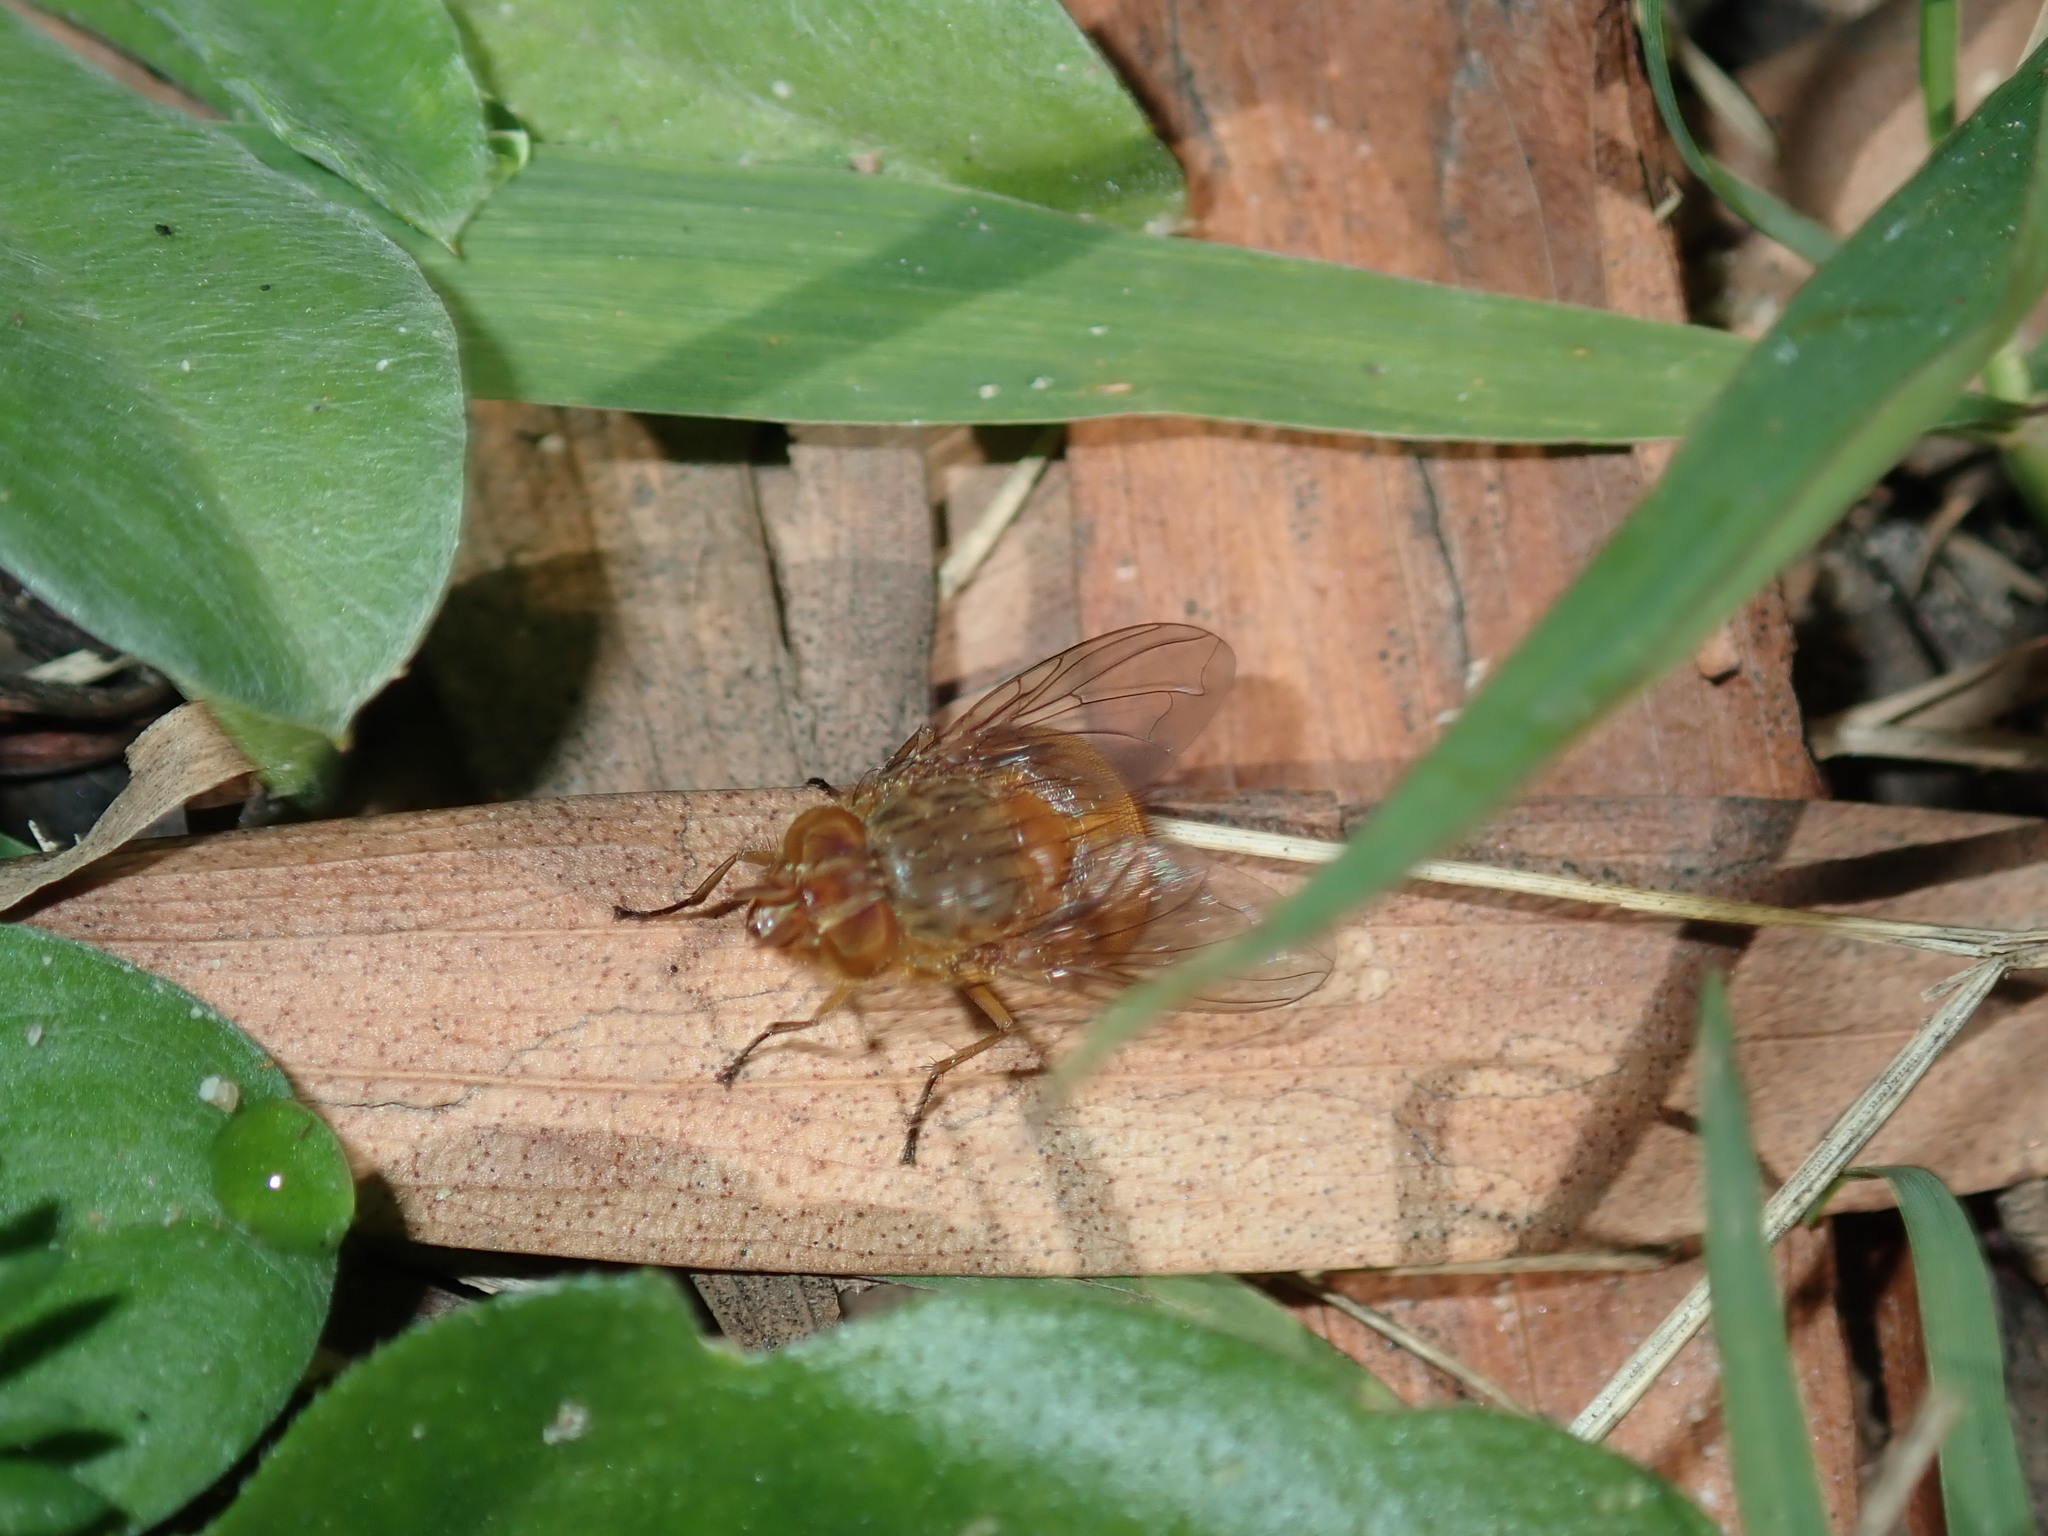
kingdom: Animalia
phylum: Arthropoda
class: Insecta
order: Diptera
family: Calliphoridae
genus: Calliphora
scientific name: Calliphora ochracea
